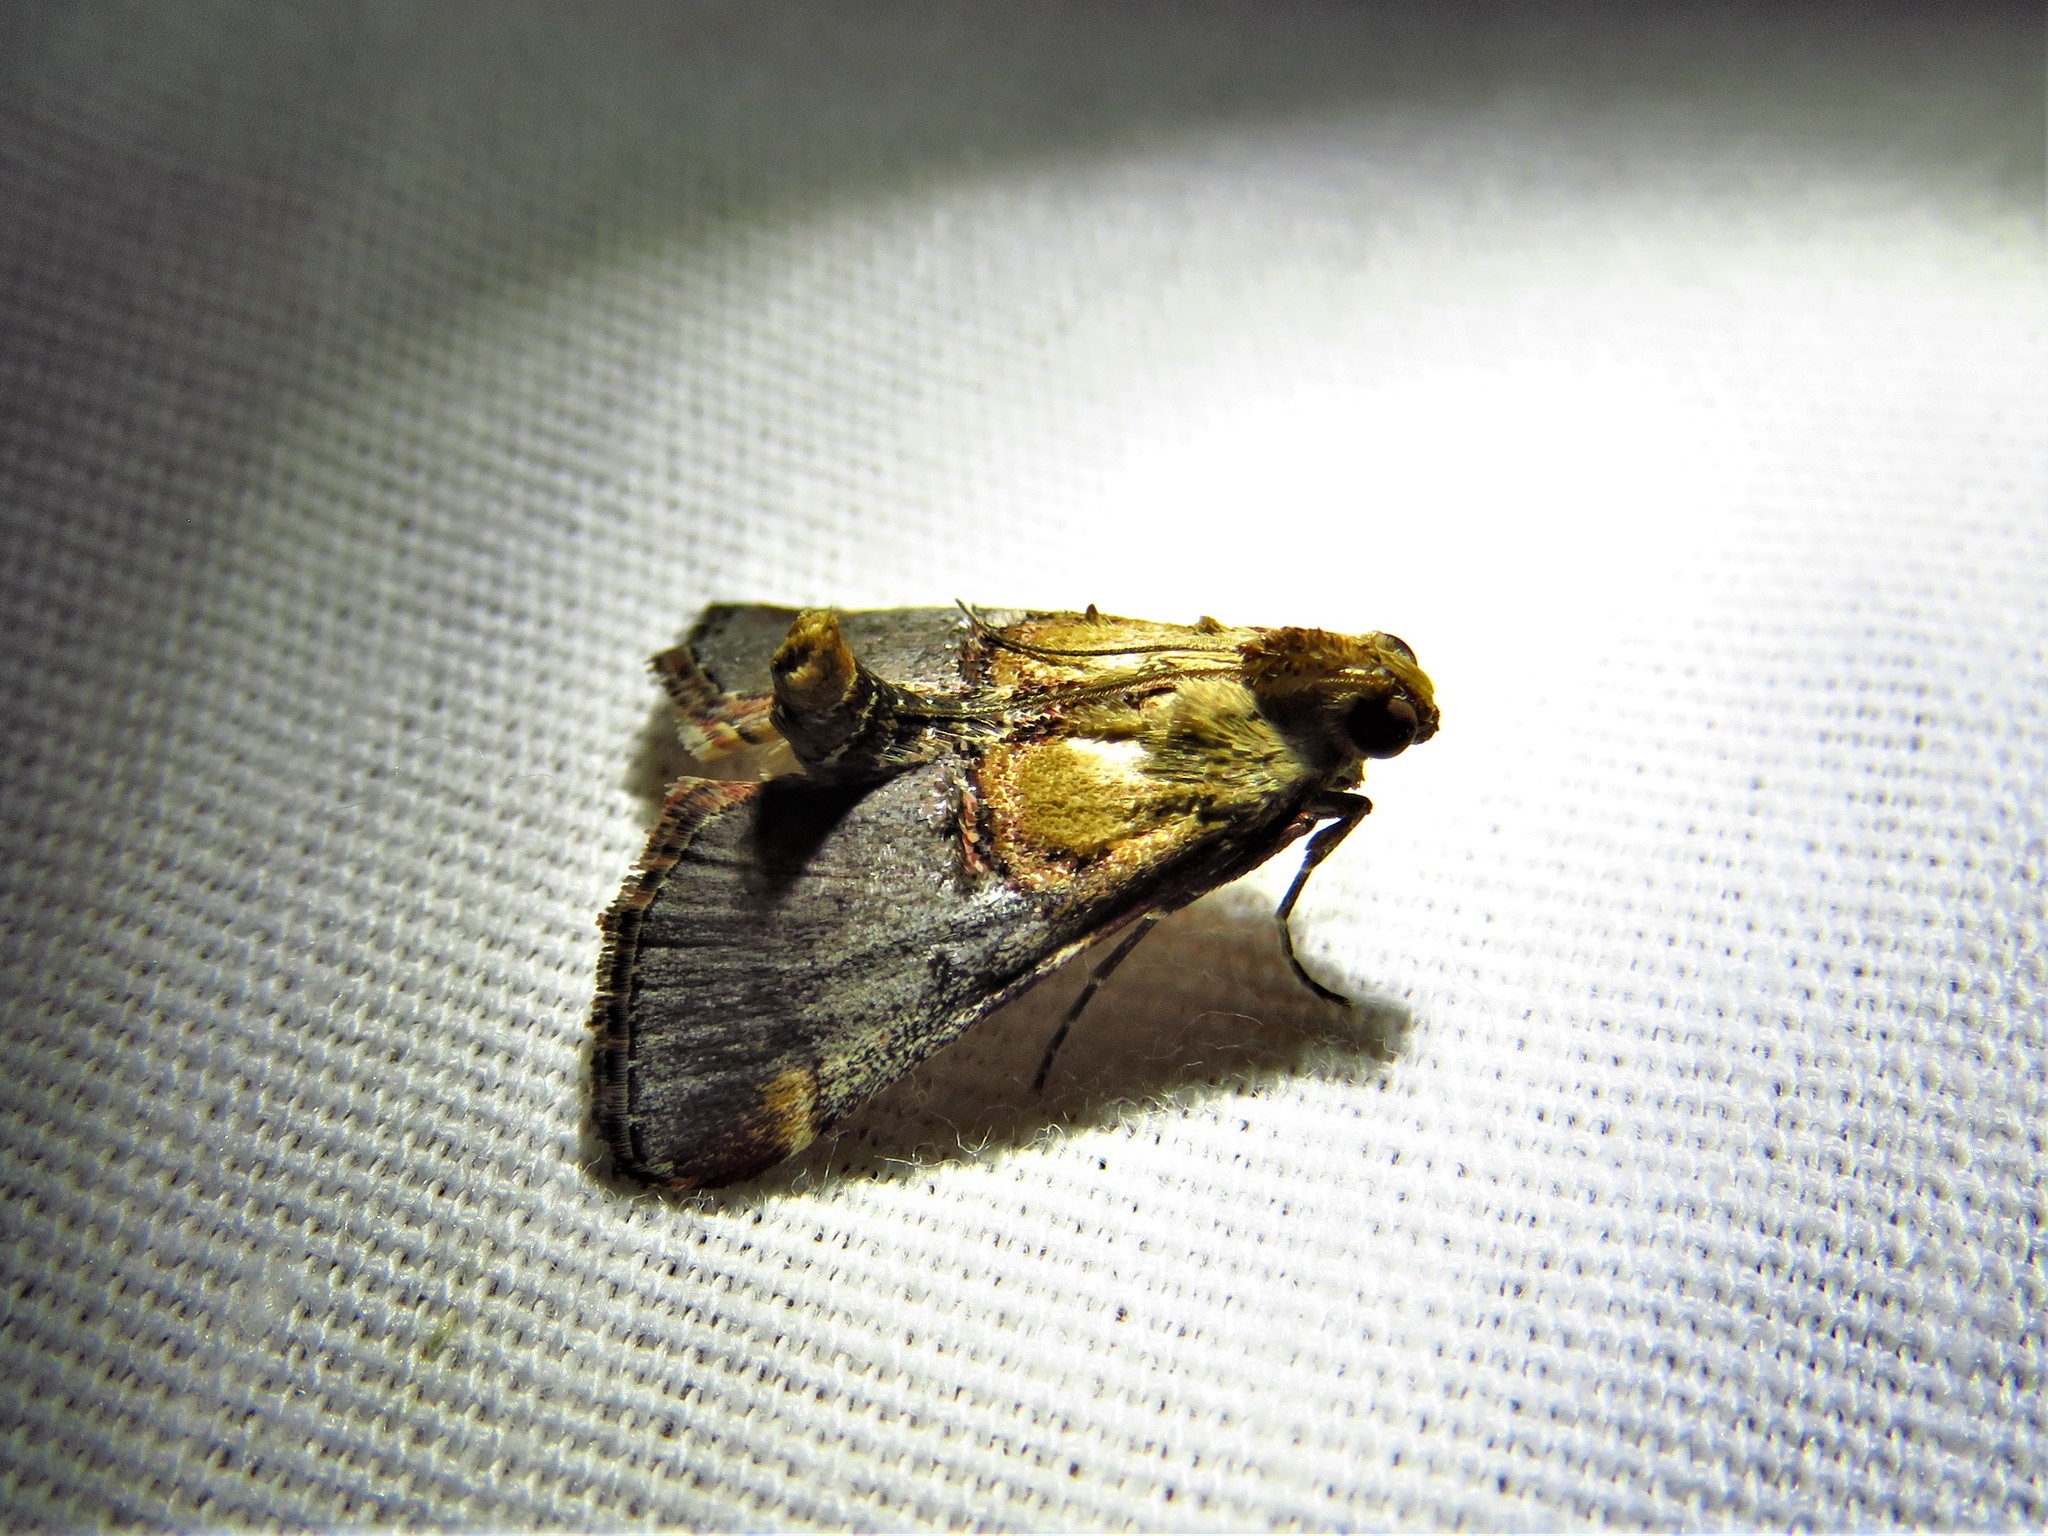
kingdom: Animalia
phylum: Arthropoda
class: Insecta
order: Lepidoptera
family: Pyralidae
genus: Cacozelia
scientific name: Cacozelia basiochrealis
